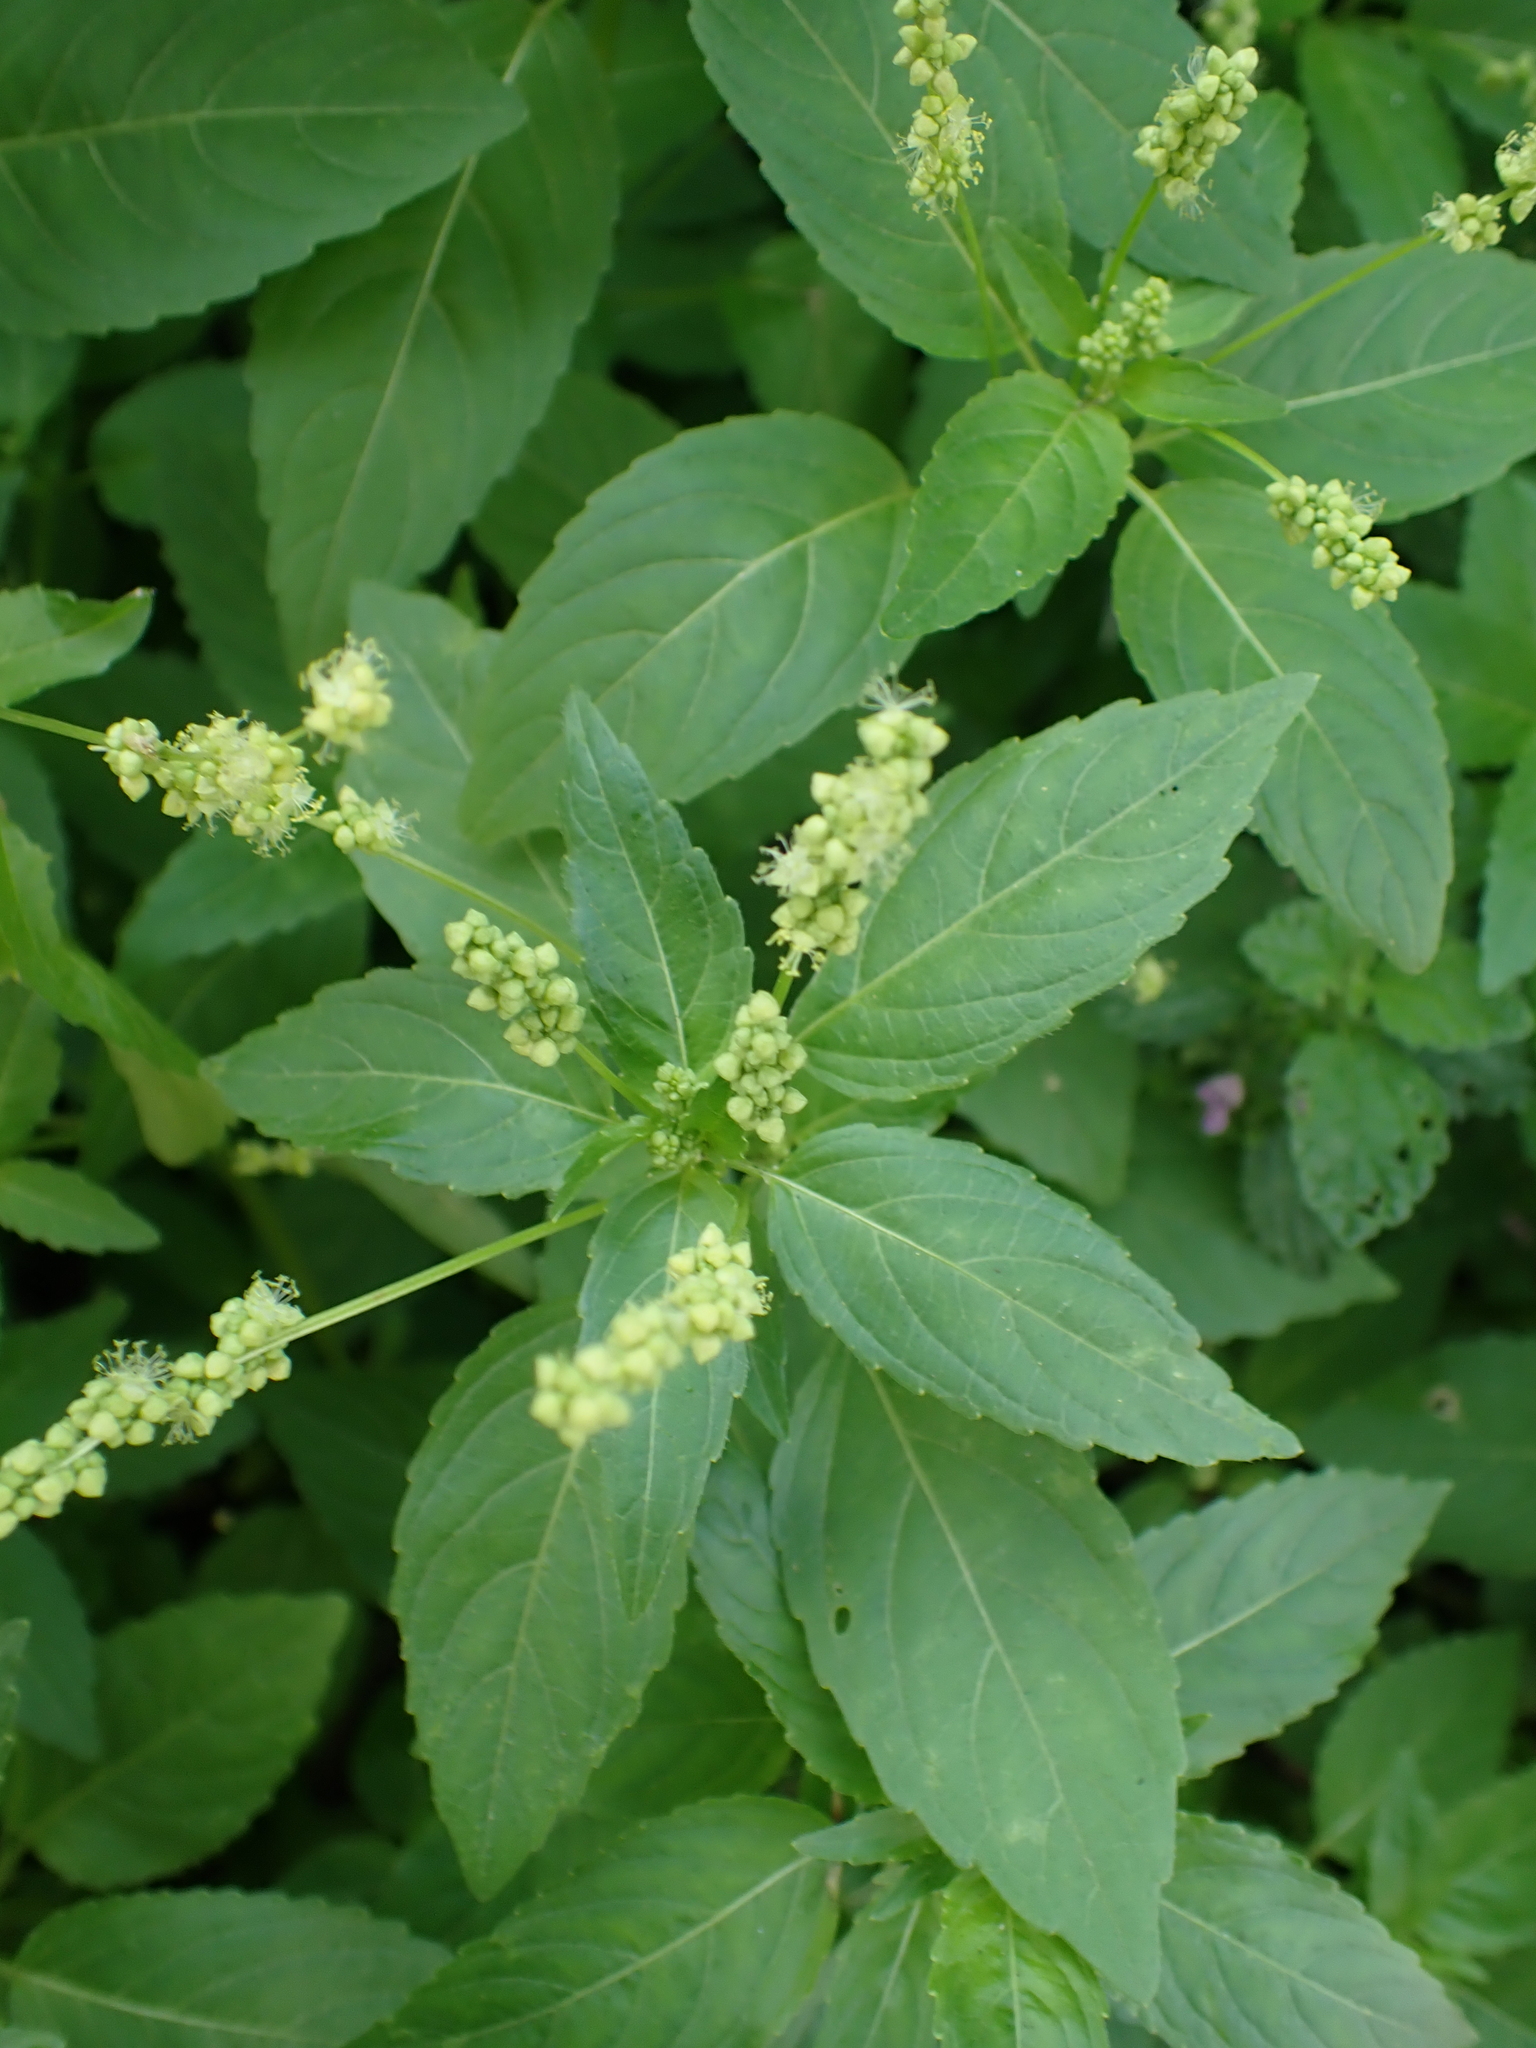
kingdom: Plantae
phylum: Tracheophyta
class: Magnoliopsida
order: Malpighiales
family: Euphorbiaceae
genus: Mercurialis
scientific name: Mercurialis annua
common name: Annual mercury
